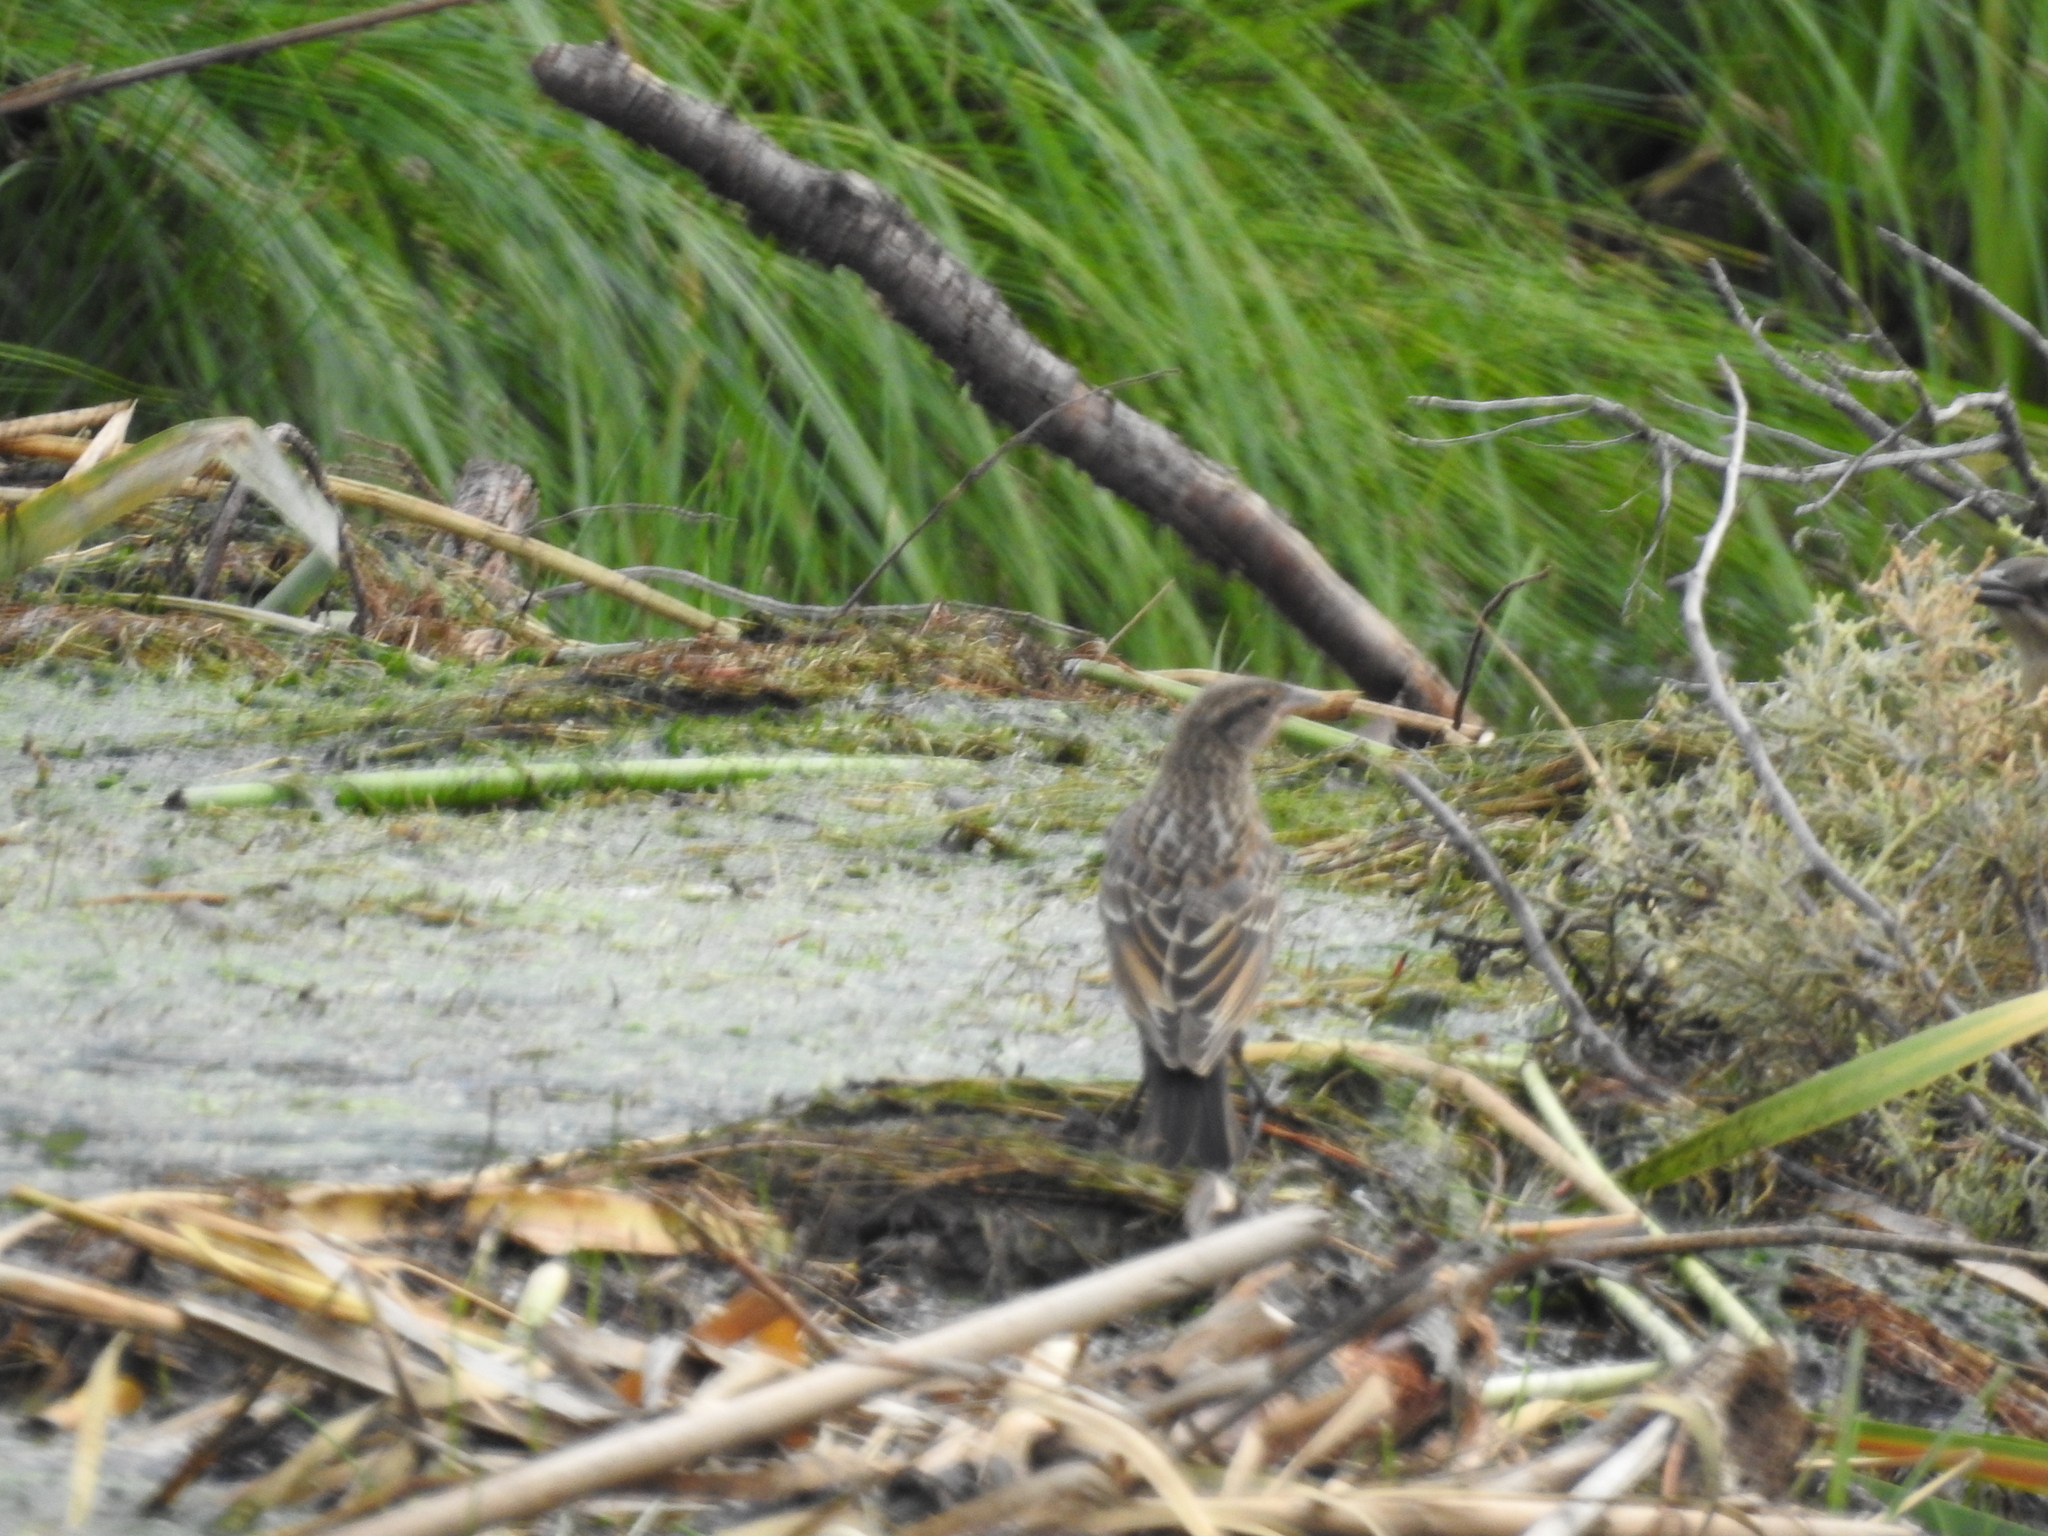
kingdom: Animalia
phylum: Chordata
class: Aves
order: Passeriformes
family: Icteridae
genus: Agelaius
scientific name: Agelaius phoeniceus
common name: Red-winged blackbird
